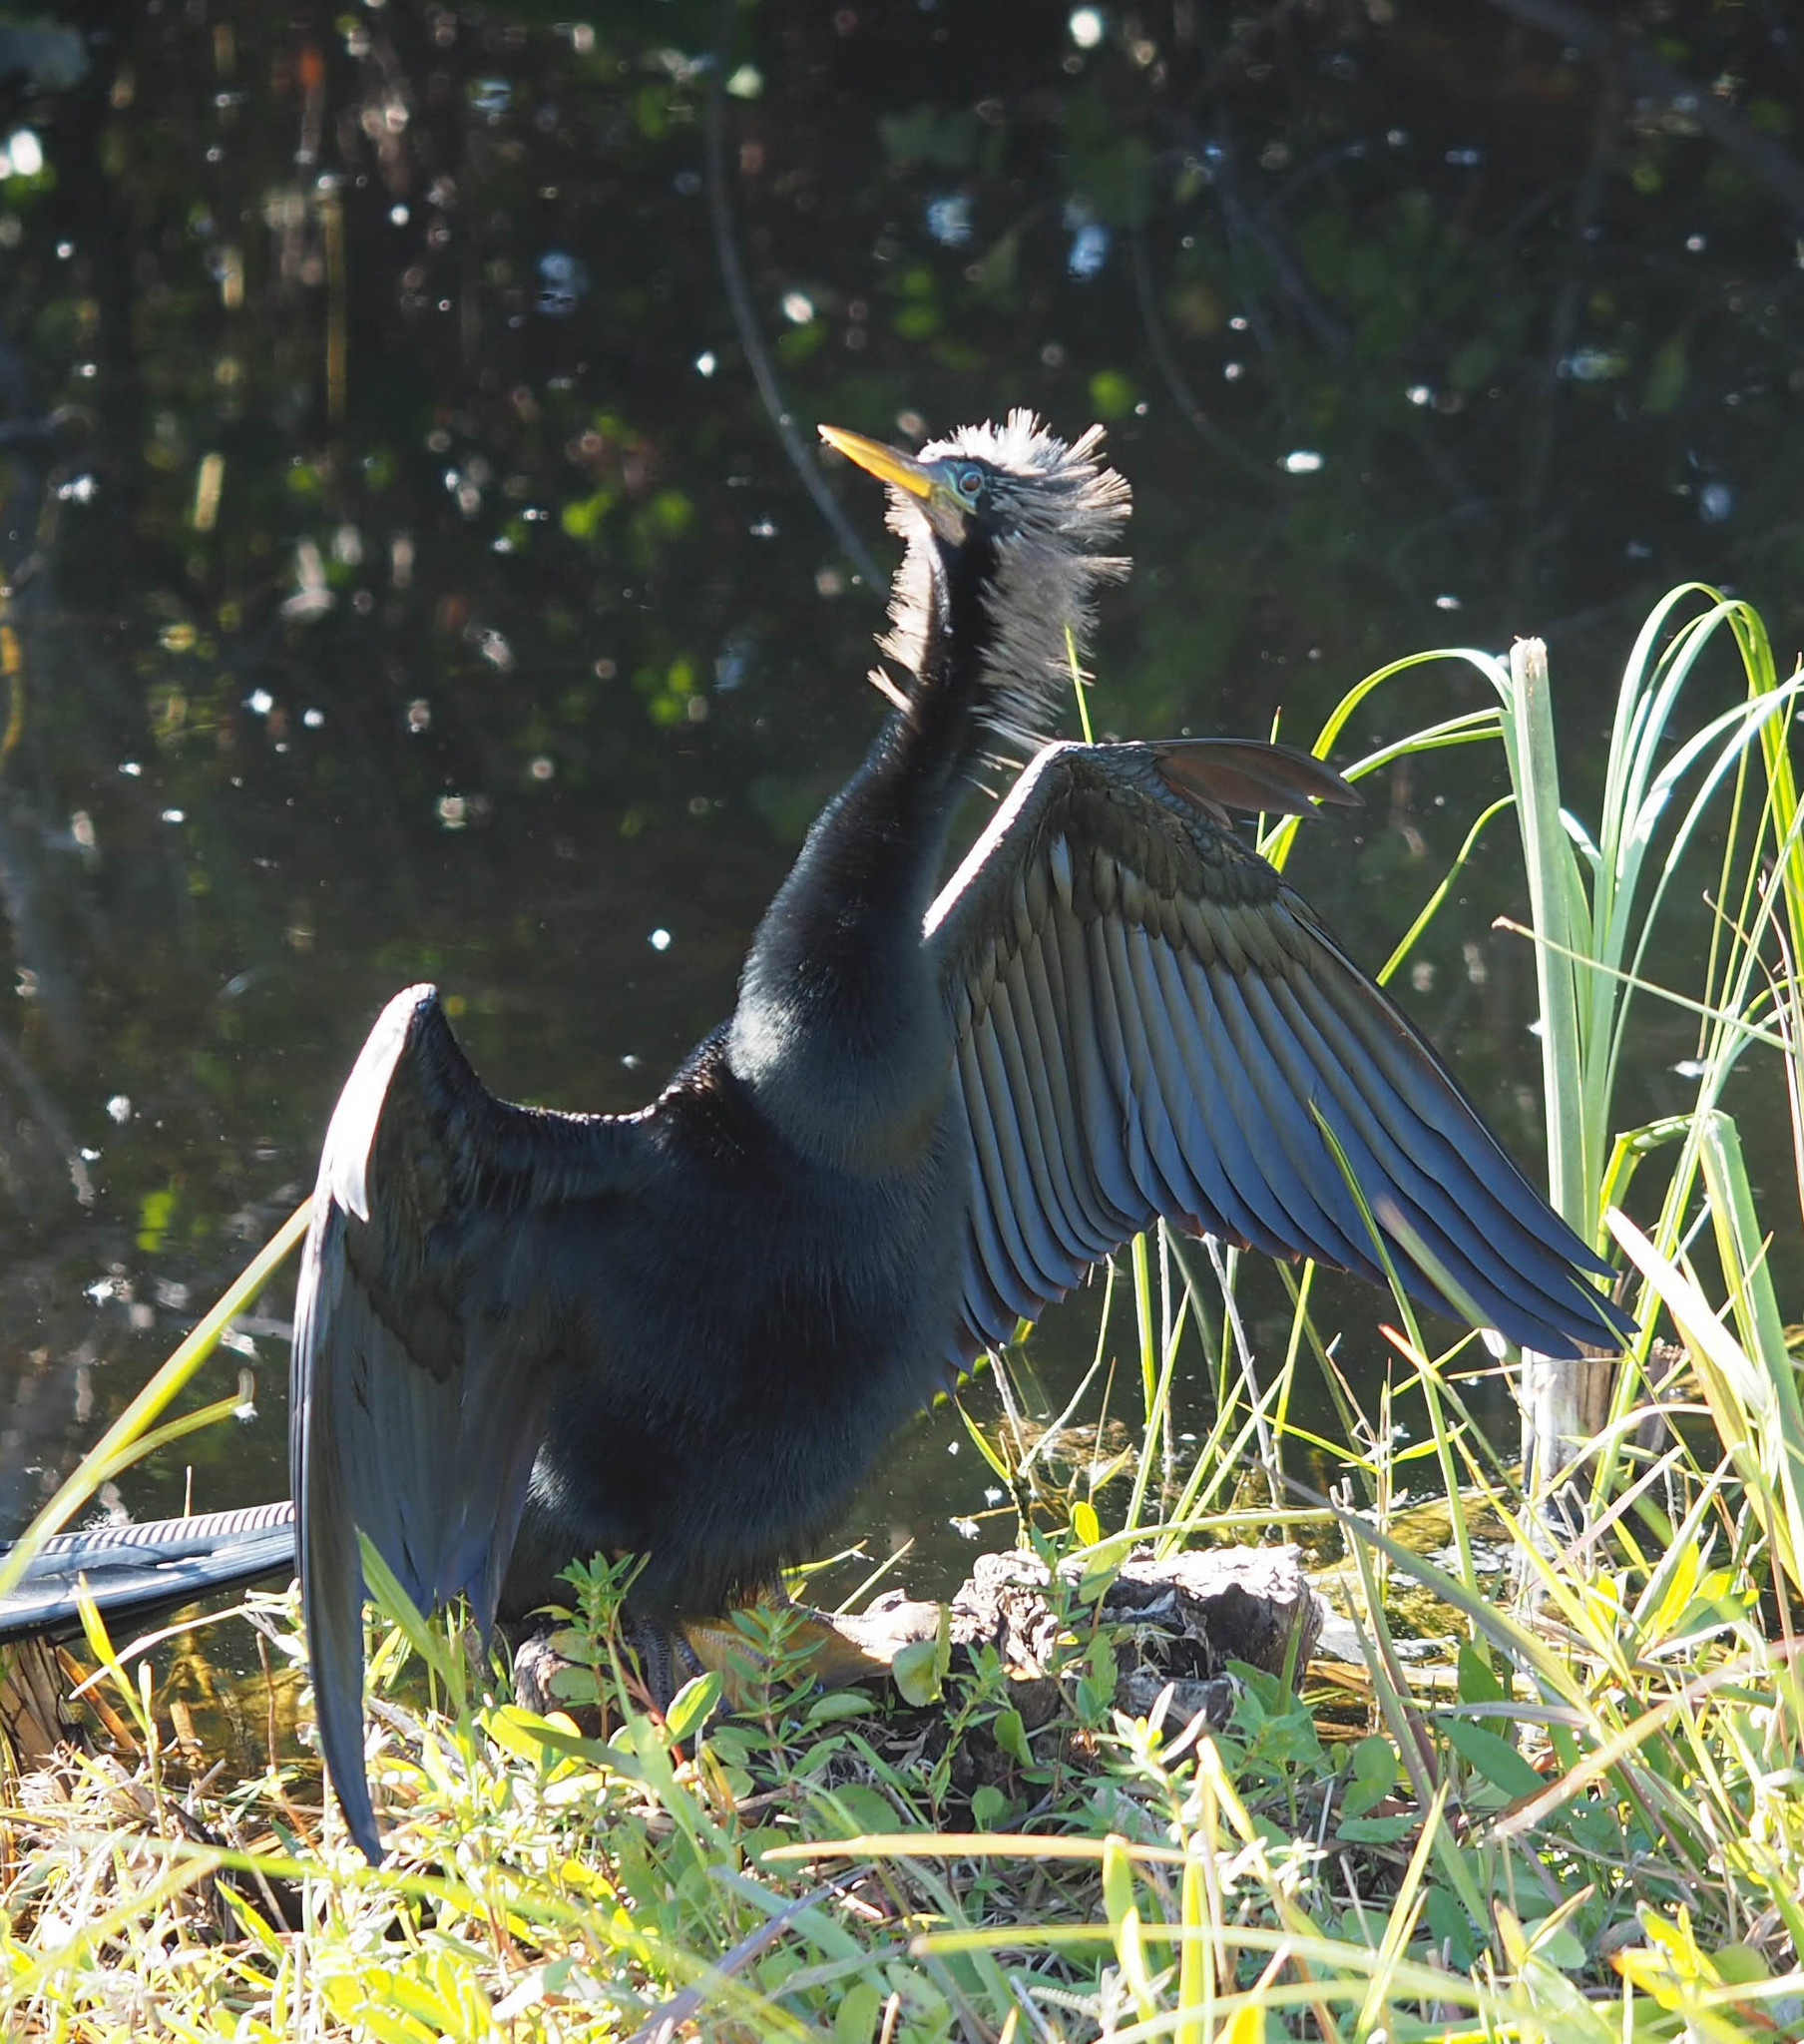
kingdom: Animalia
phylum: Chordata
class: Aves
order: Suliformes
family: Anhingidae
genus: Anhinga
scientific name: Anhinga anhinga
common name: Anhinga
